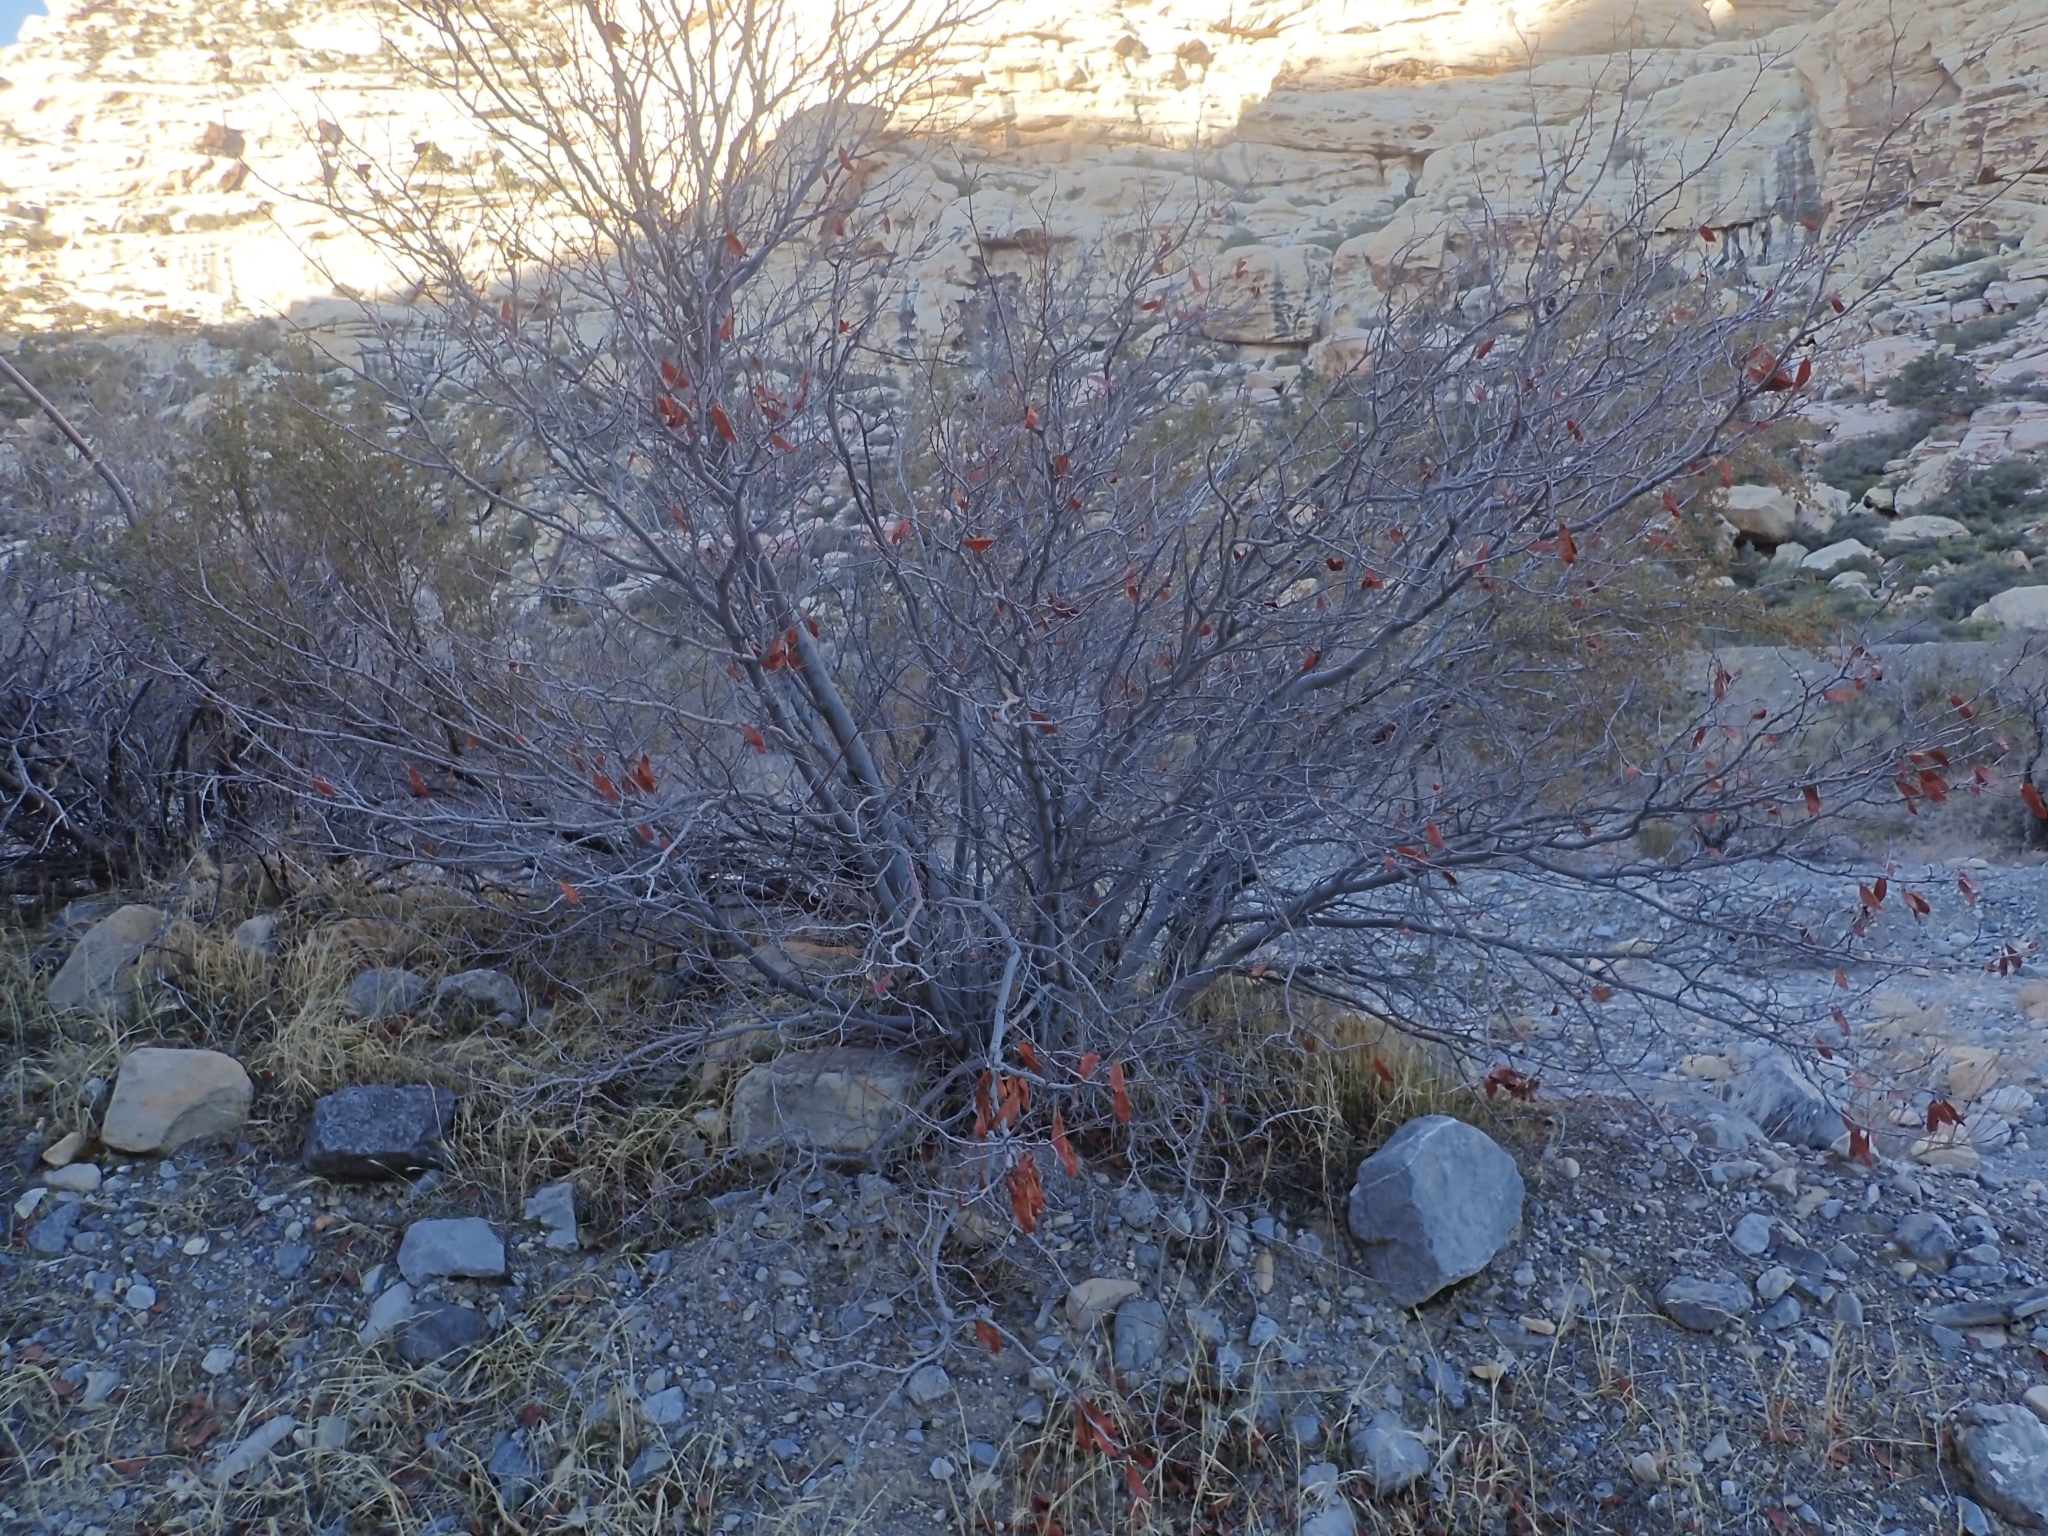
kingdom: Plantae
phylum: Tracheophyta
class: Magnoliopsida
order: Fabales
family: Fabaceae
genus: Cercis
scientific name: Cercis occidentalis
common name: California redbud
